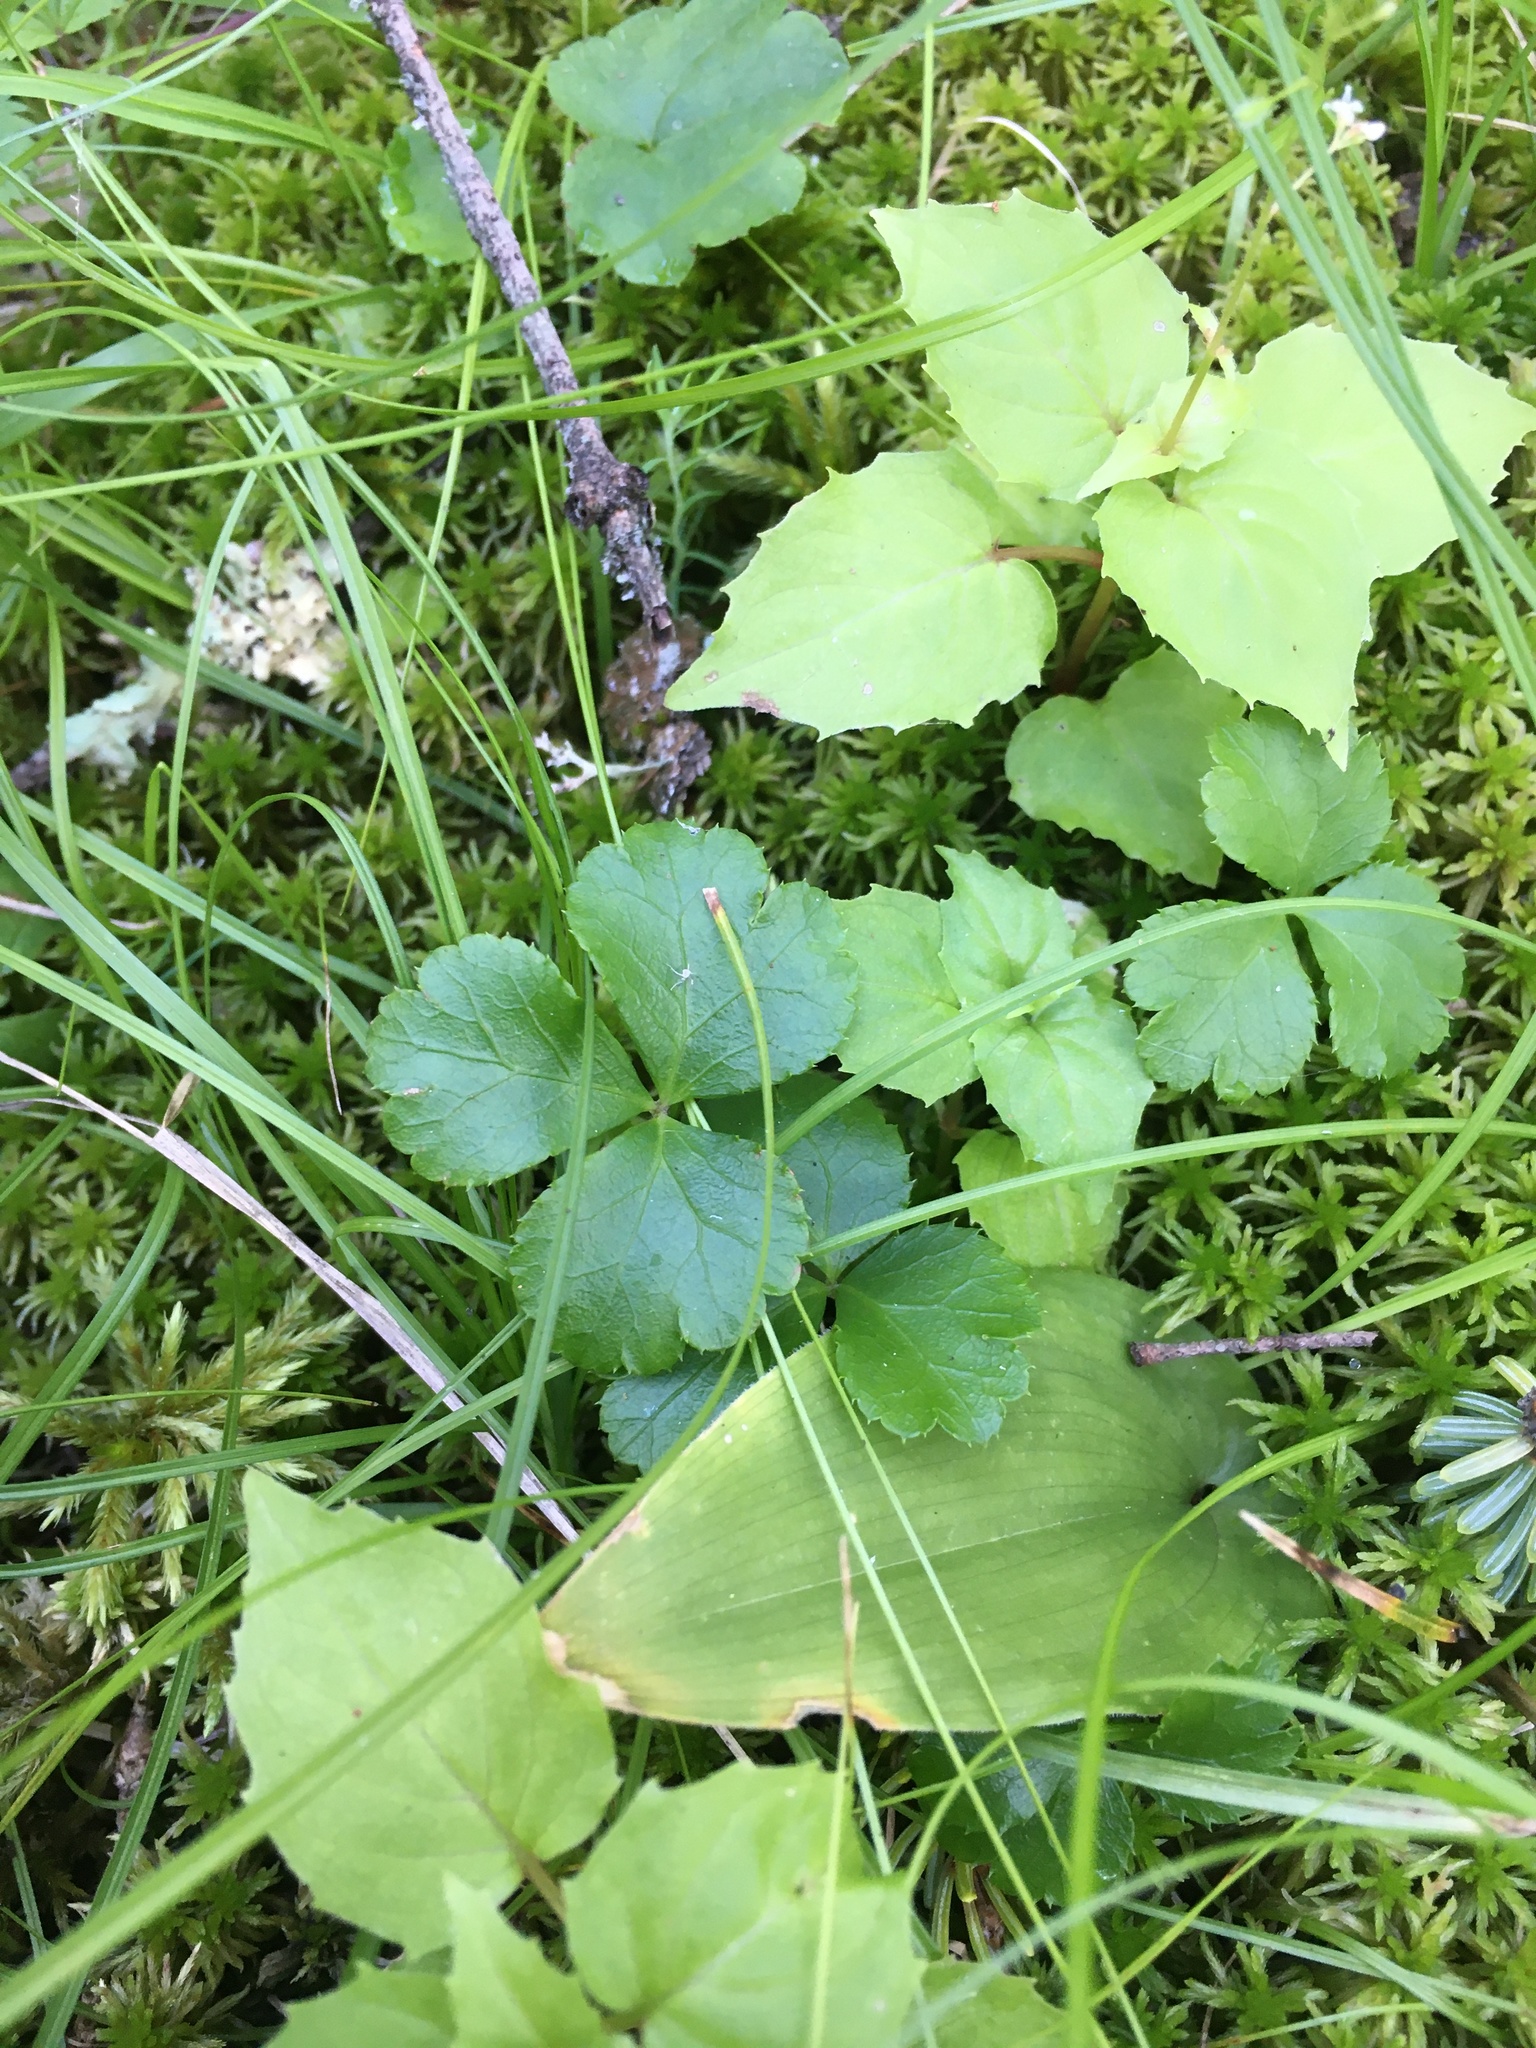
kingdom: Plantae
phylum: Tracheophyta
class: Magnoliopsida
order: Ranunculales
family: Ranunculaceae
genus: Coptis
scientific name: Coptis trifolia
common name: Canker-root
